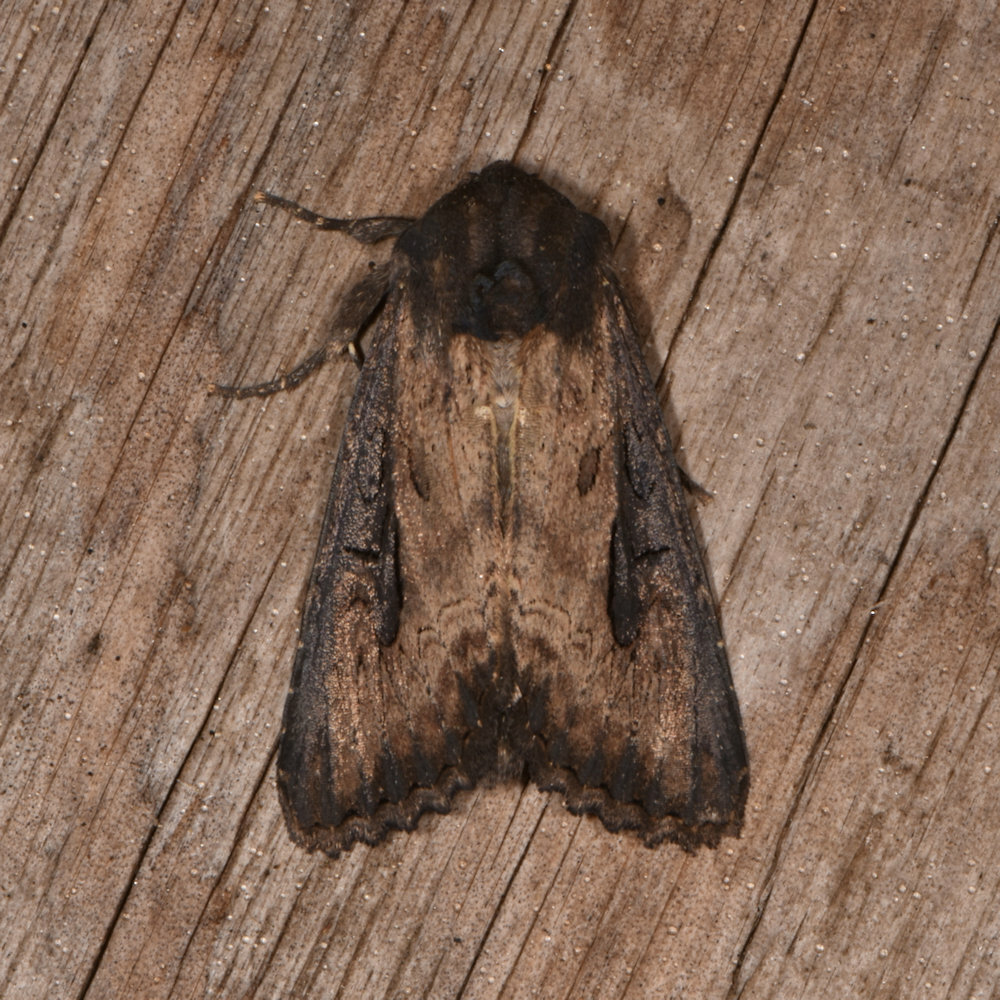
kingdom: Animalia
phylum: Arthropoda
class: Insecta
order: Lepidoptera
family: Noctuidae
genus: Macronoctua
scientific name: Macronoctua onusta
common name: Iris borer
